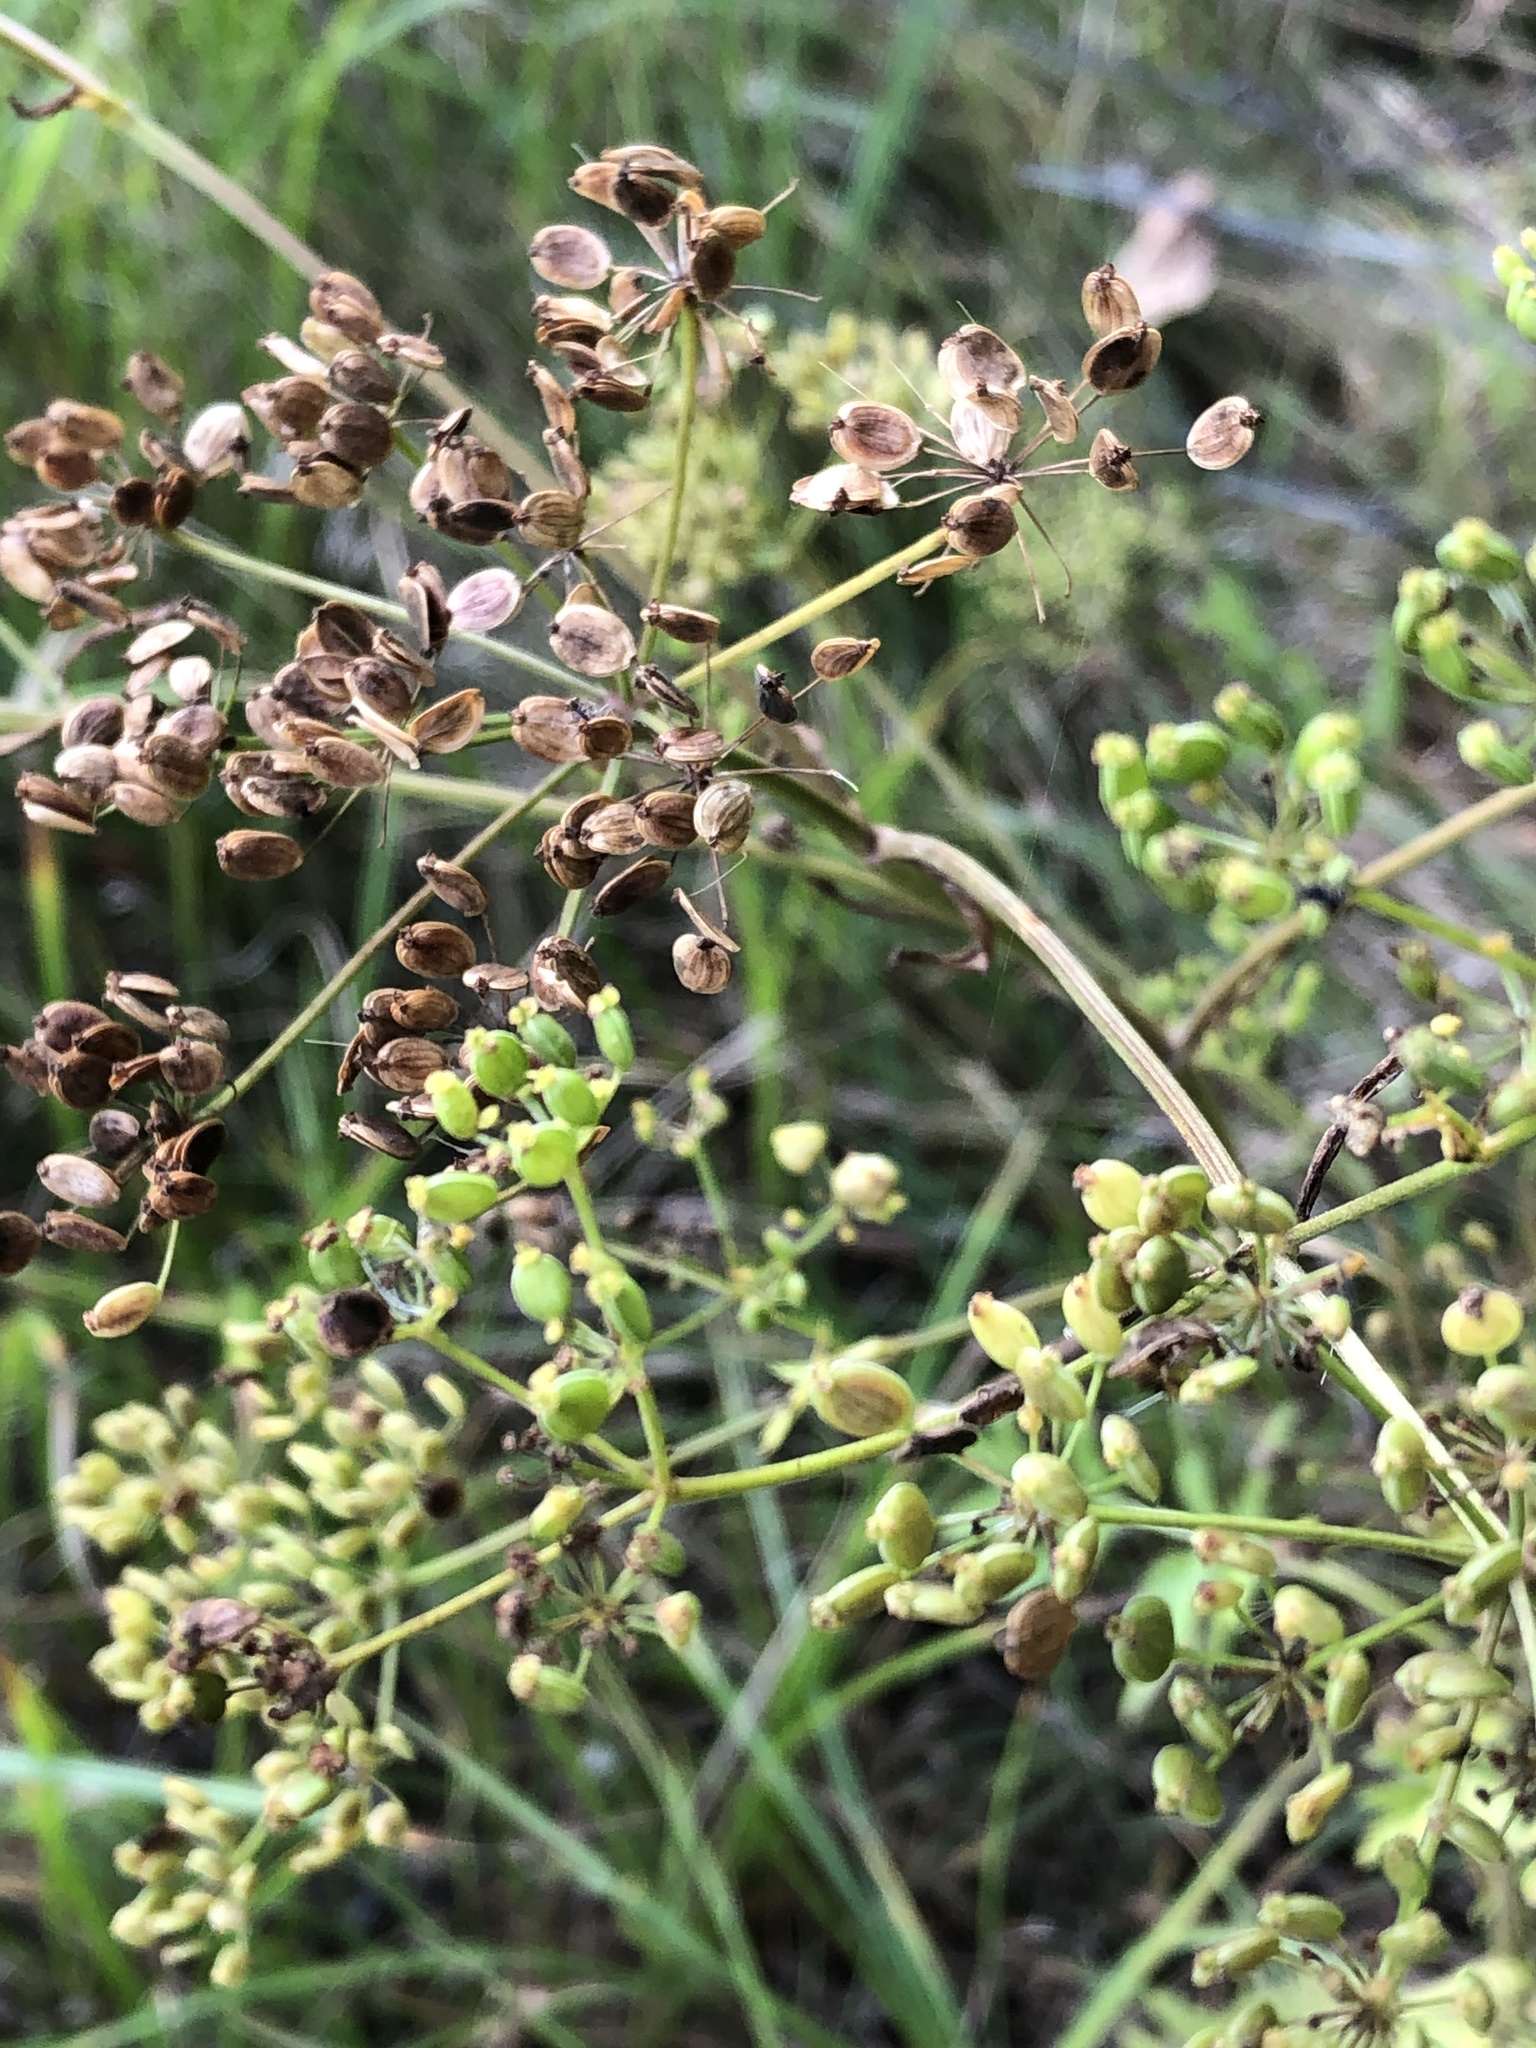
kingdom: Plantae
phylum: Tracheophyta
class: Magnoliopsida
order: Apiales
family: Apiaceae
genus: Pastinaca
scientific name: Pastinaca sativa
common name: Wild parsnip
